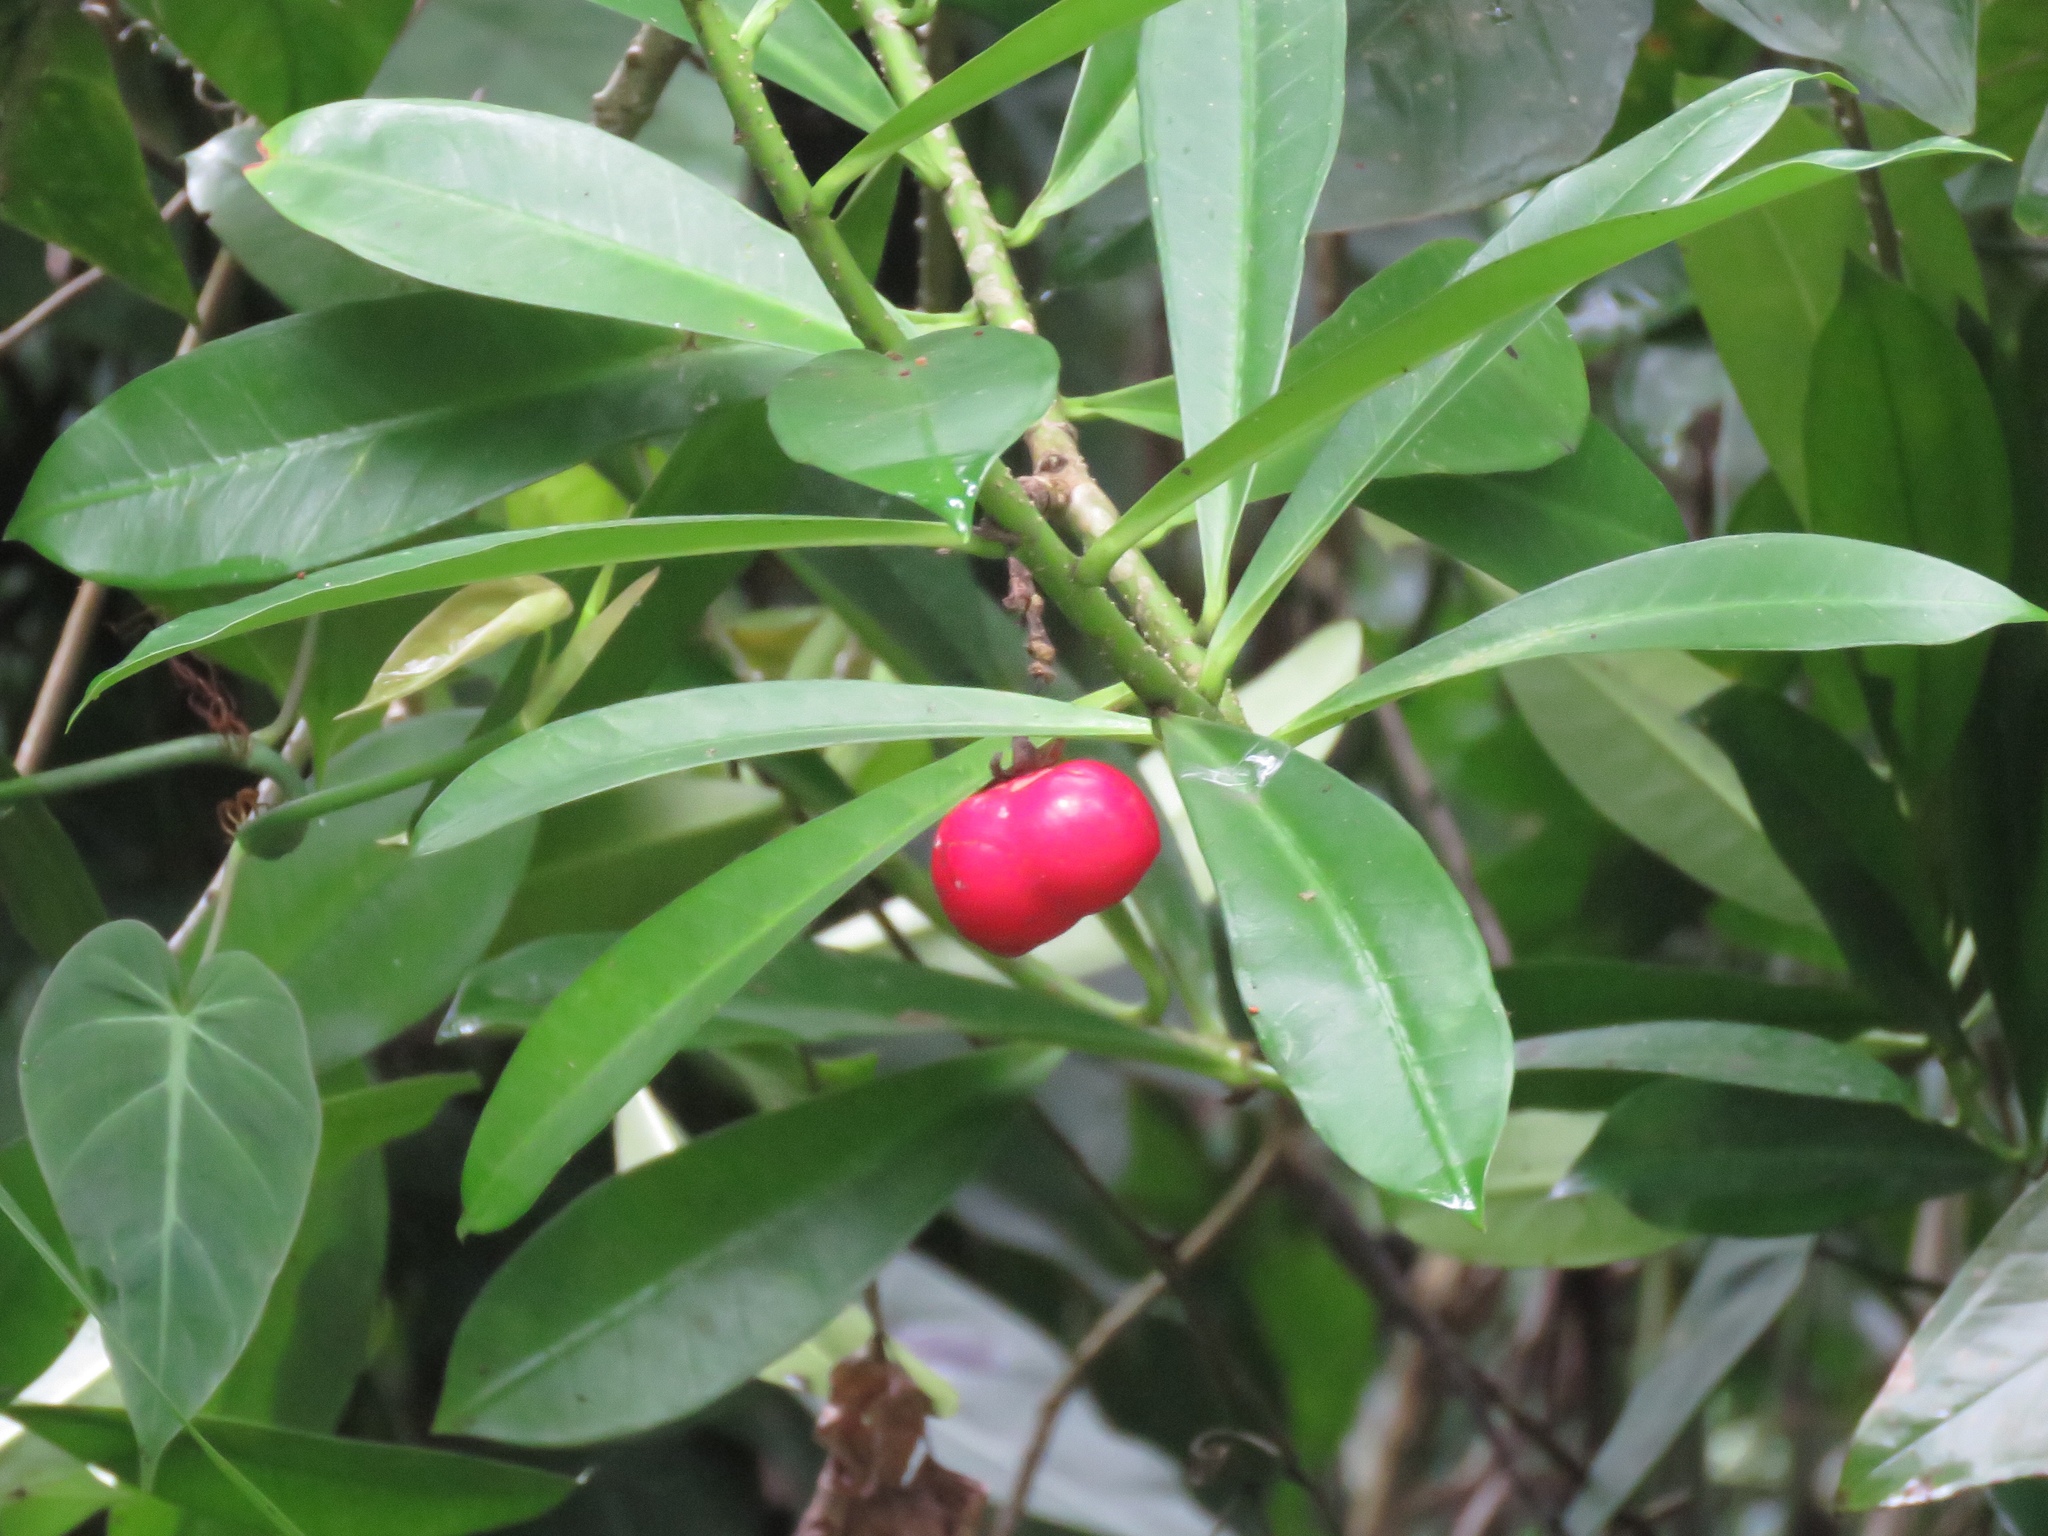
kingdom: Plantae
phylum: Tracheophyta
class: Magnoliopsida
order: Gentianales
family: Apocynaceae
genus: Thevetia
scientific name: Thevetia ahouai
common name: Broadleaf thevetia
